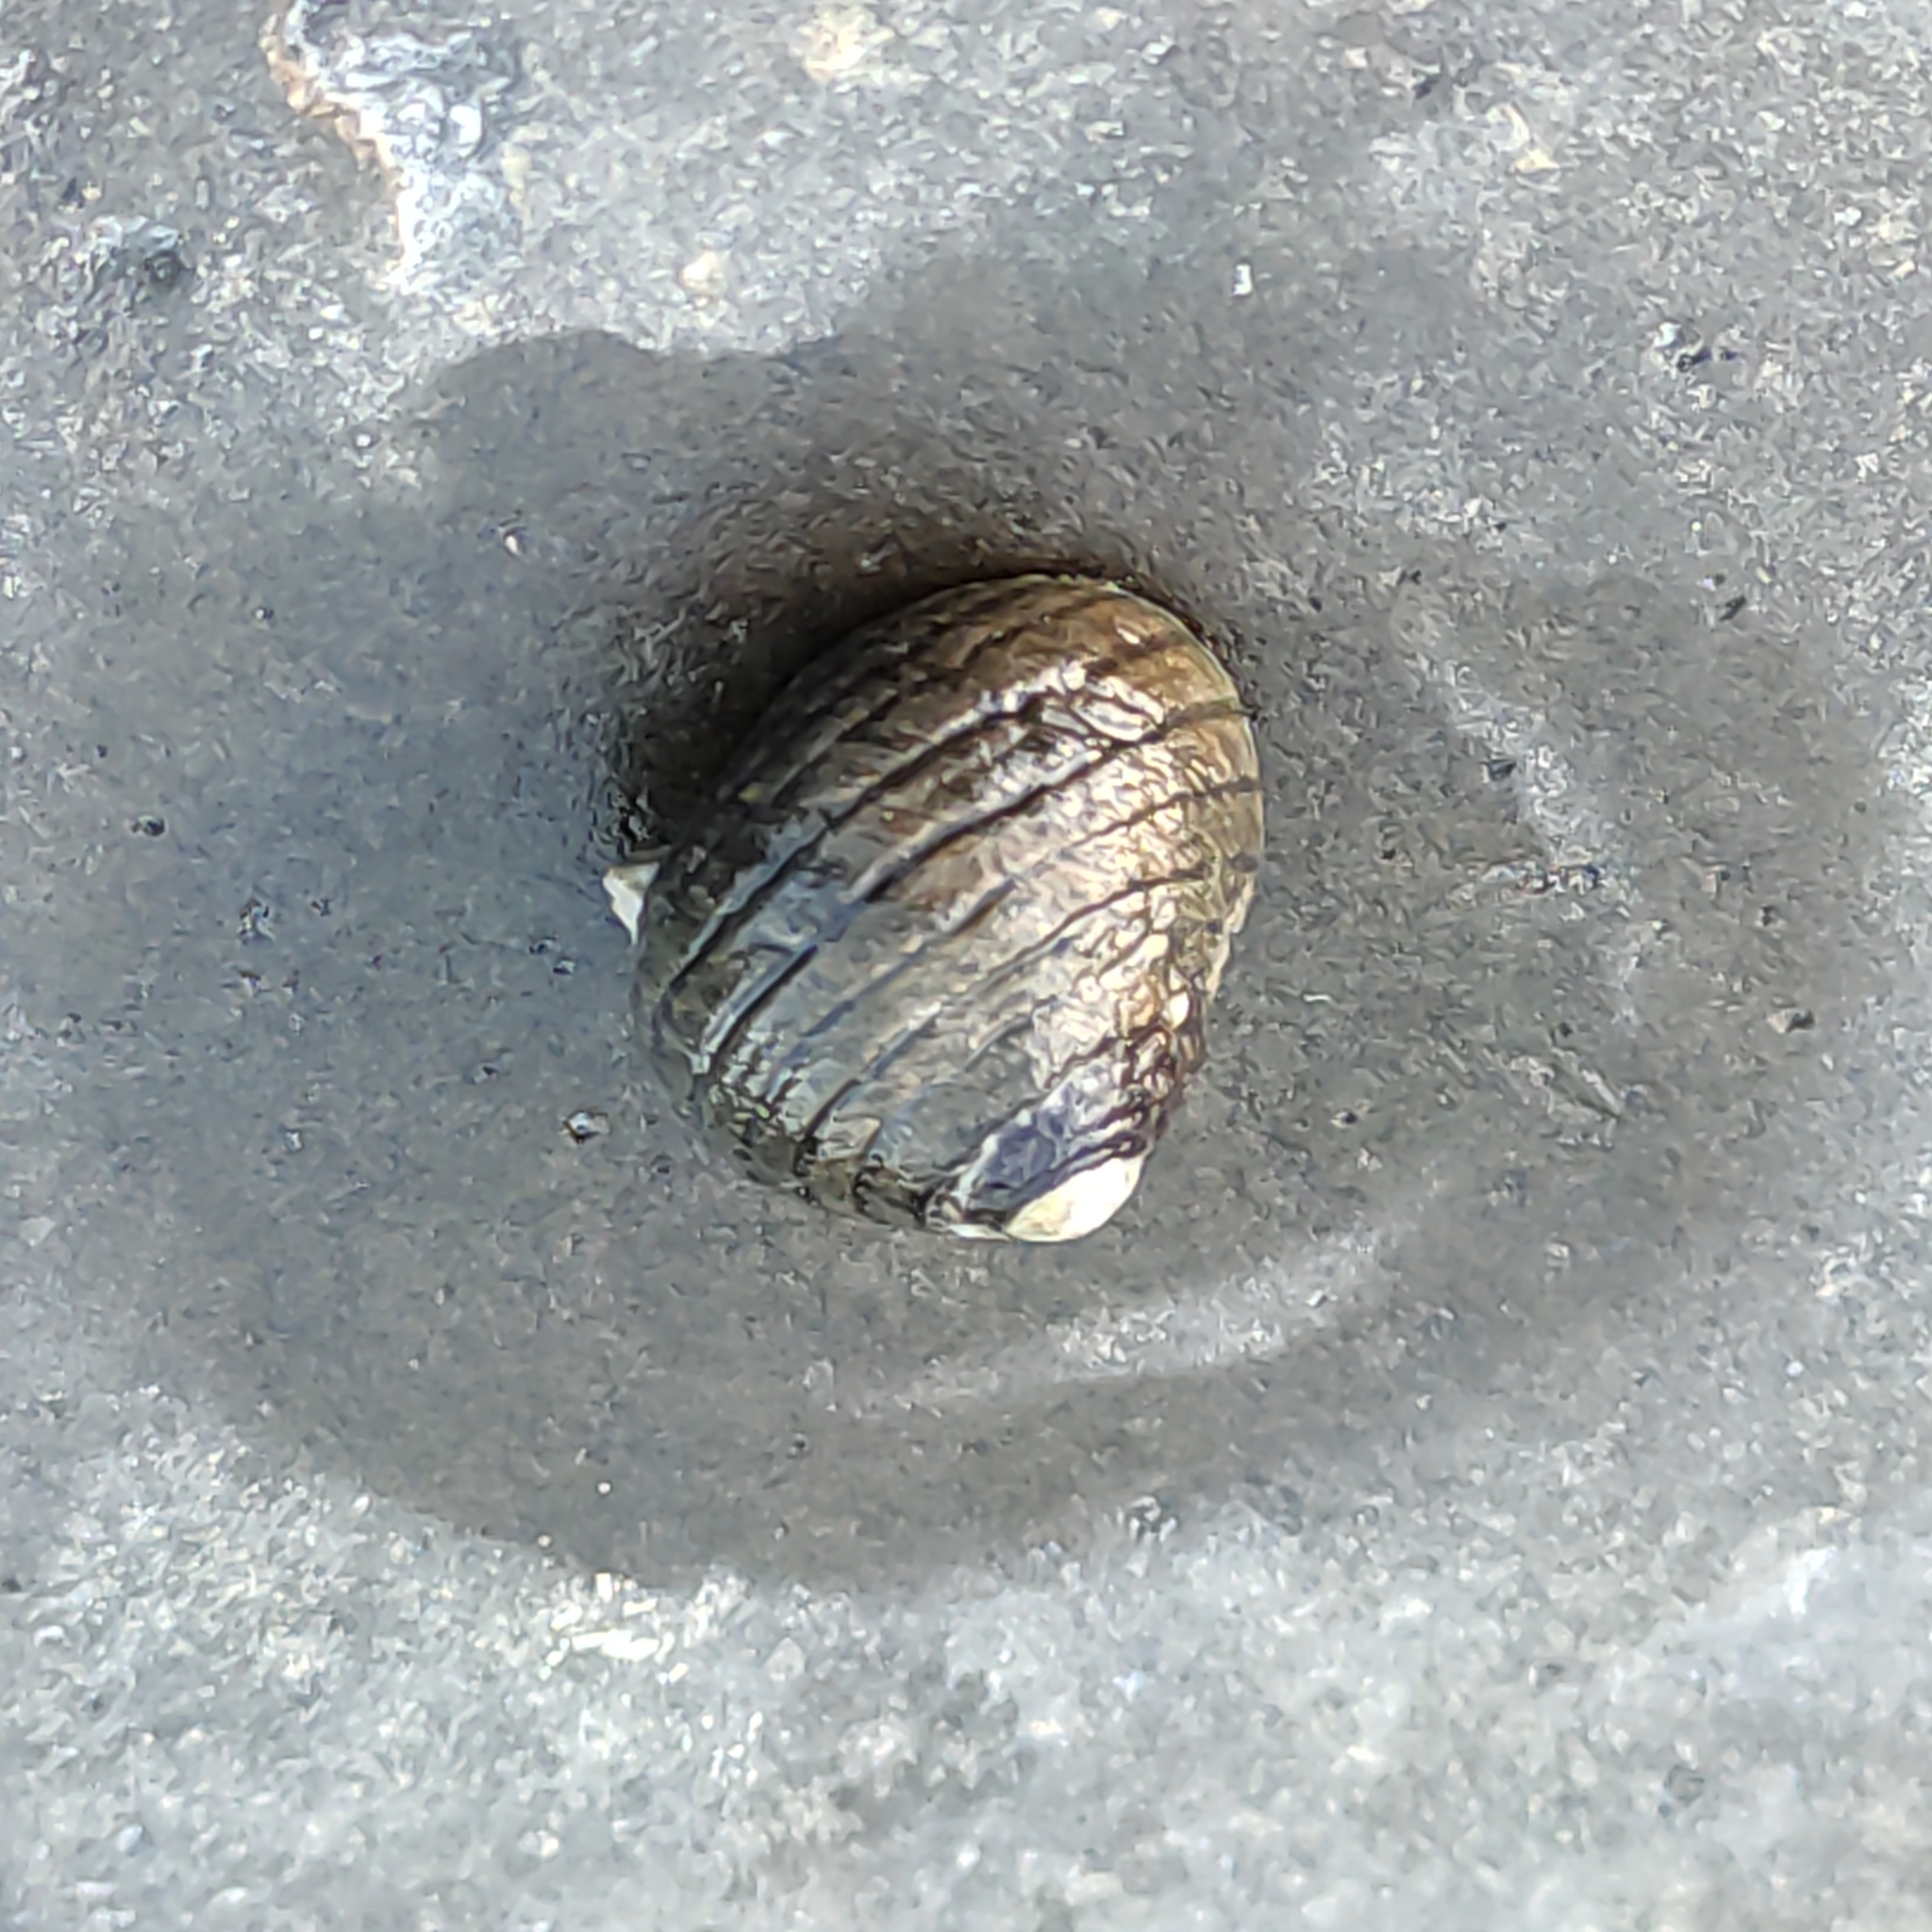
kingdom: Animalia
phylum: Mollusca
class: Gastropoda
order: Trochida
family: Trochidae
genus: Diloma
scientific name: Diloma aethiops
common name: Scorched monodont
